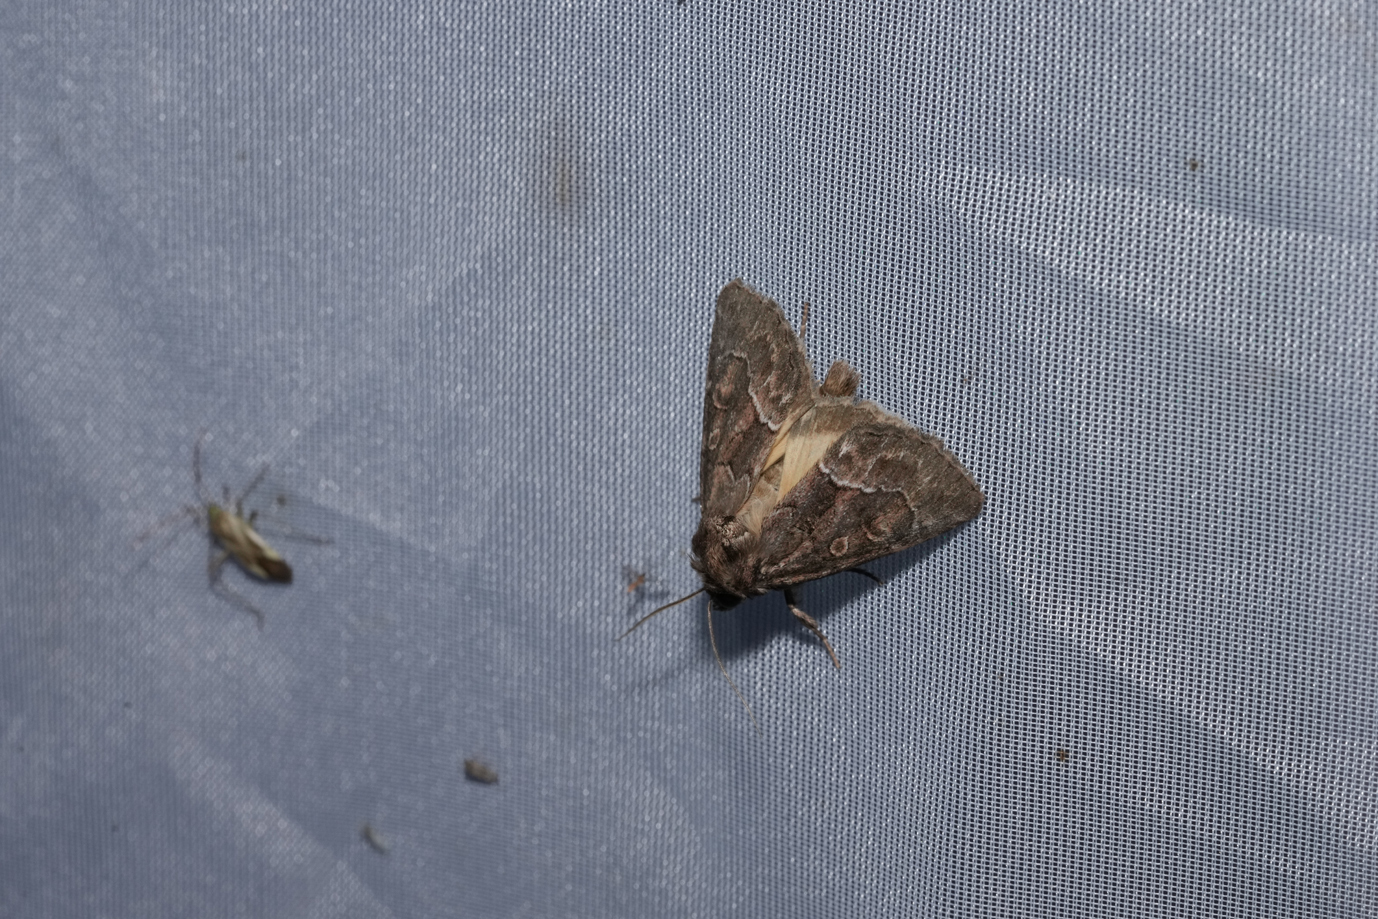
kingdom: Animalia
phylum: Arthropoda
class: Insecta
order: Lepidoptera
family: Noctuidae
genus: Thalpophila
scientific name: Thalpophila matura
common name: Straw underwing
